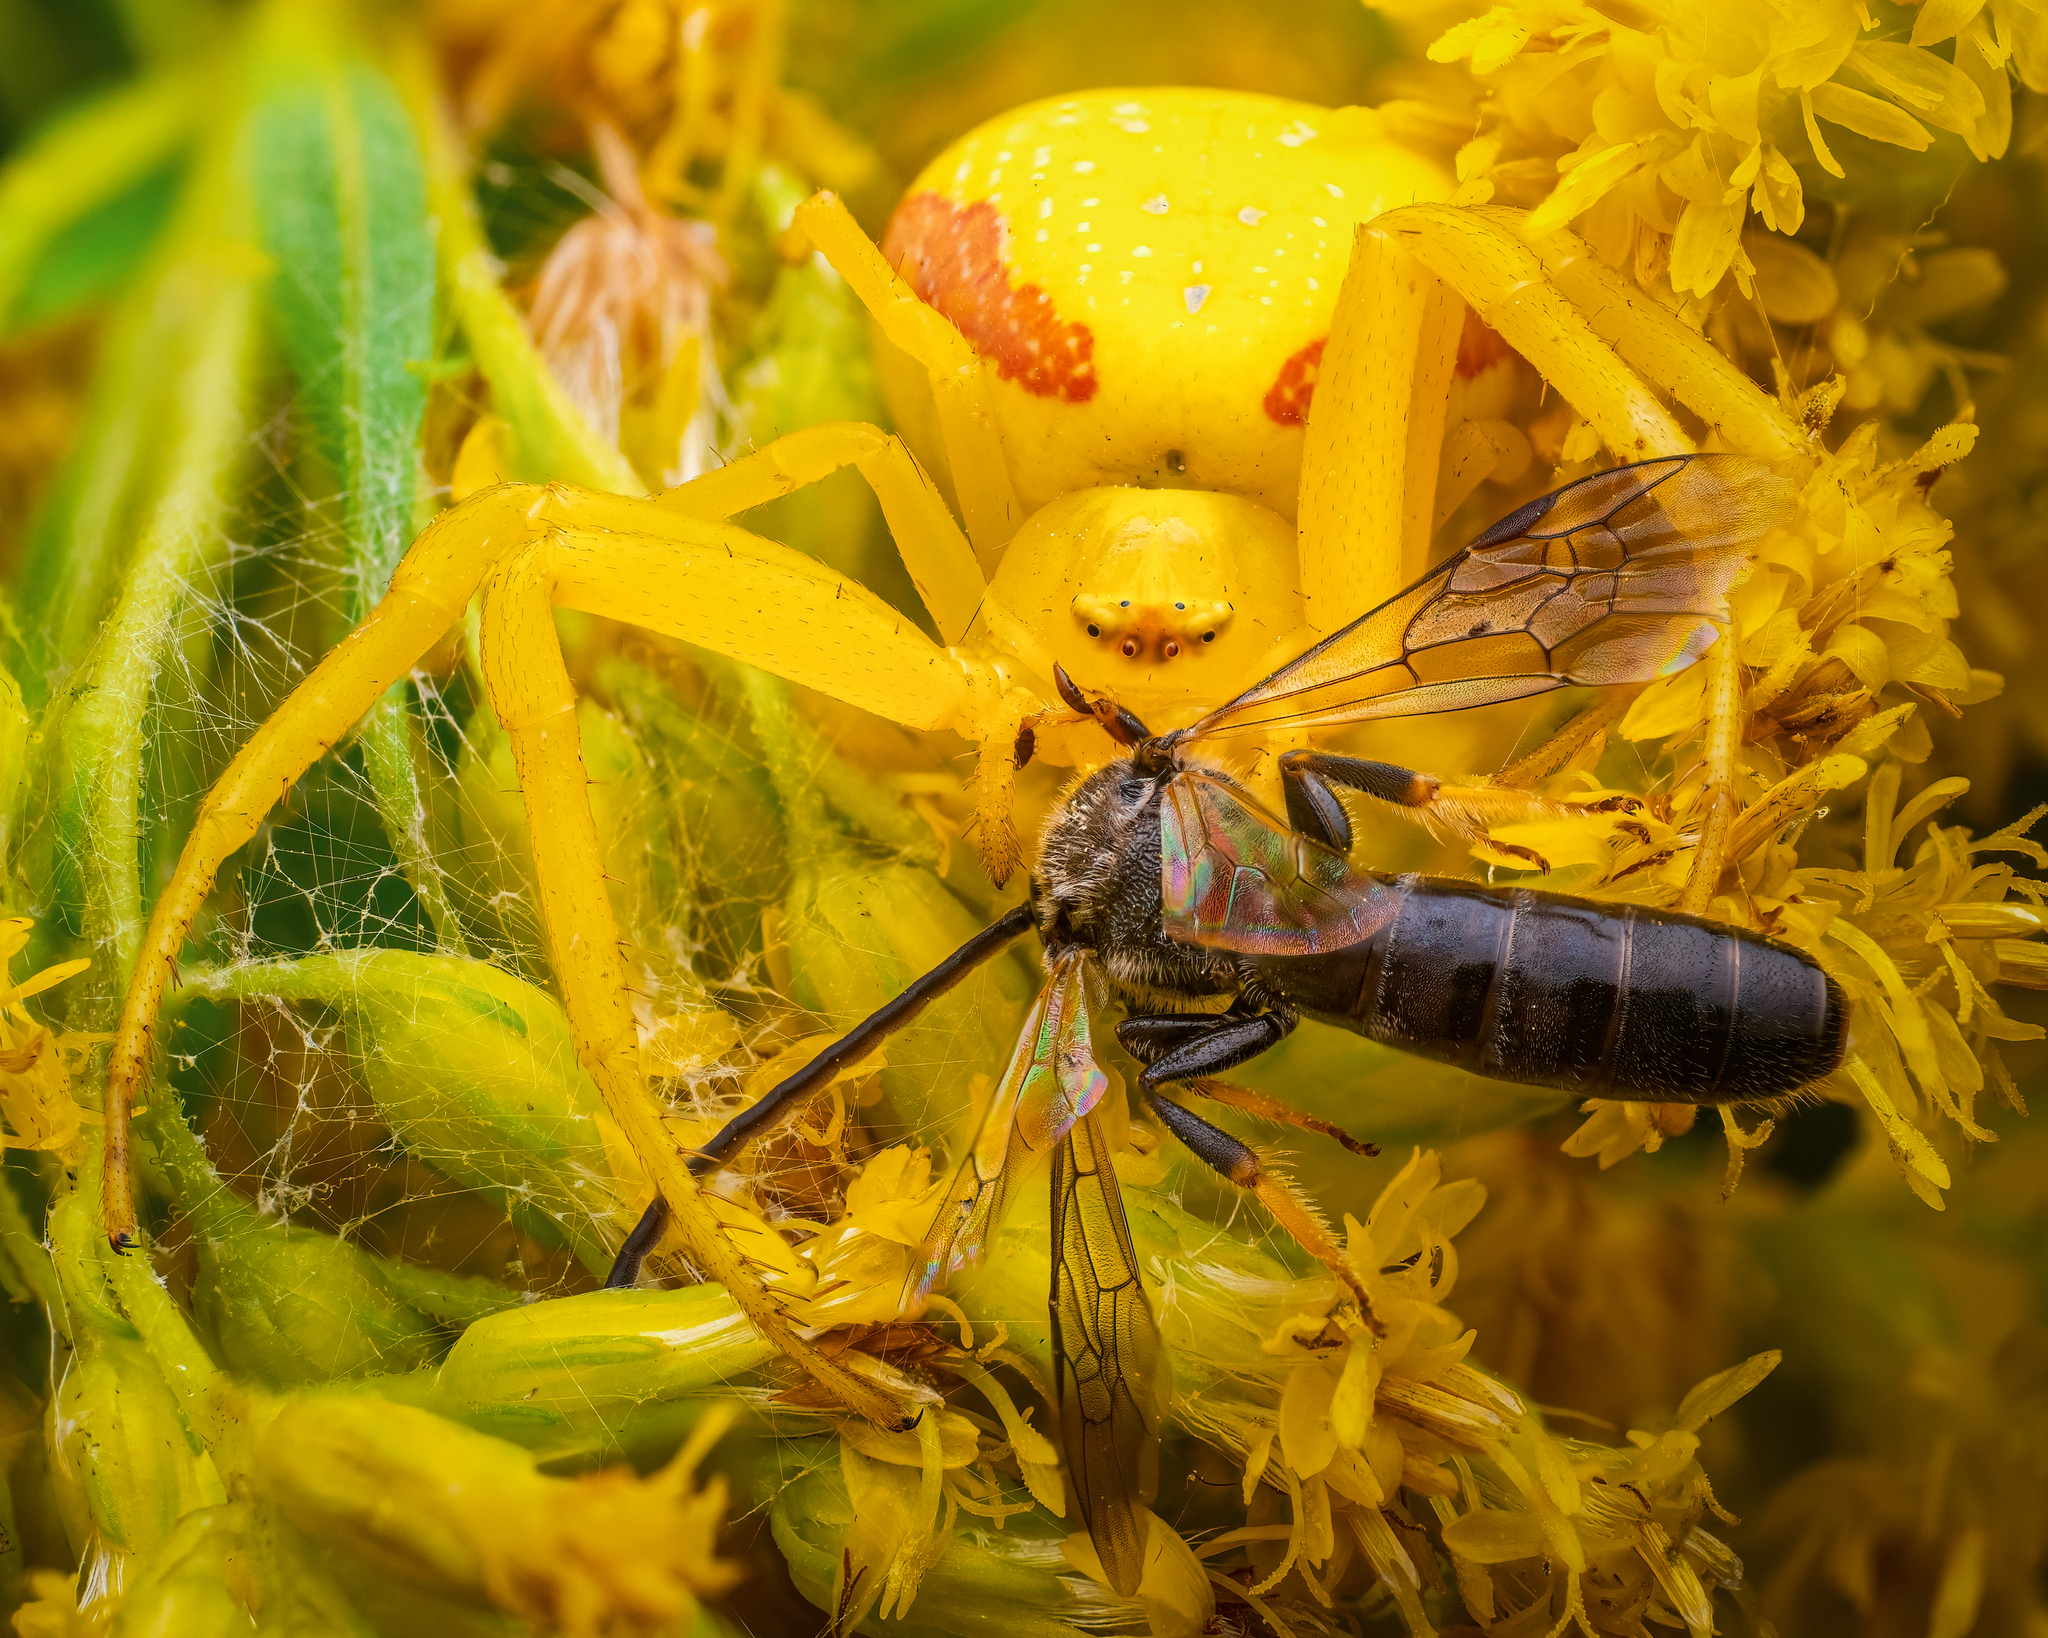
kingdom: Animalia
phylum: Arthropoda
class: Arachnida
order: Araneae
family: Thomisidae
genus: Misumena
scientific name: Misumena vatia
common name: Goldenrod crab spider
